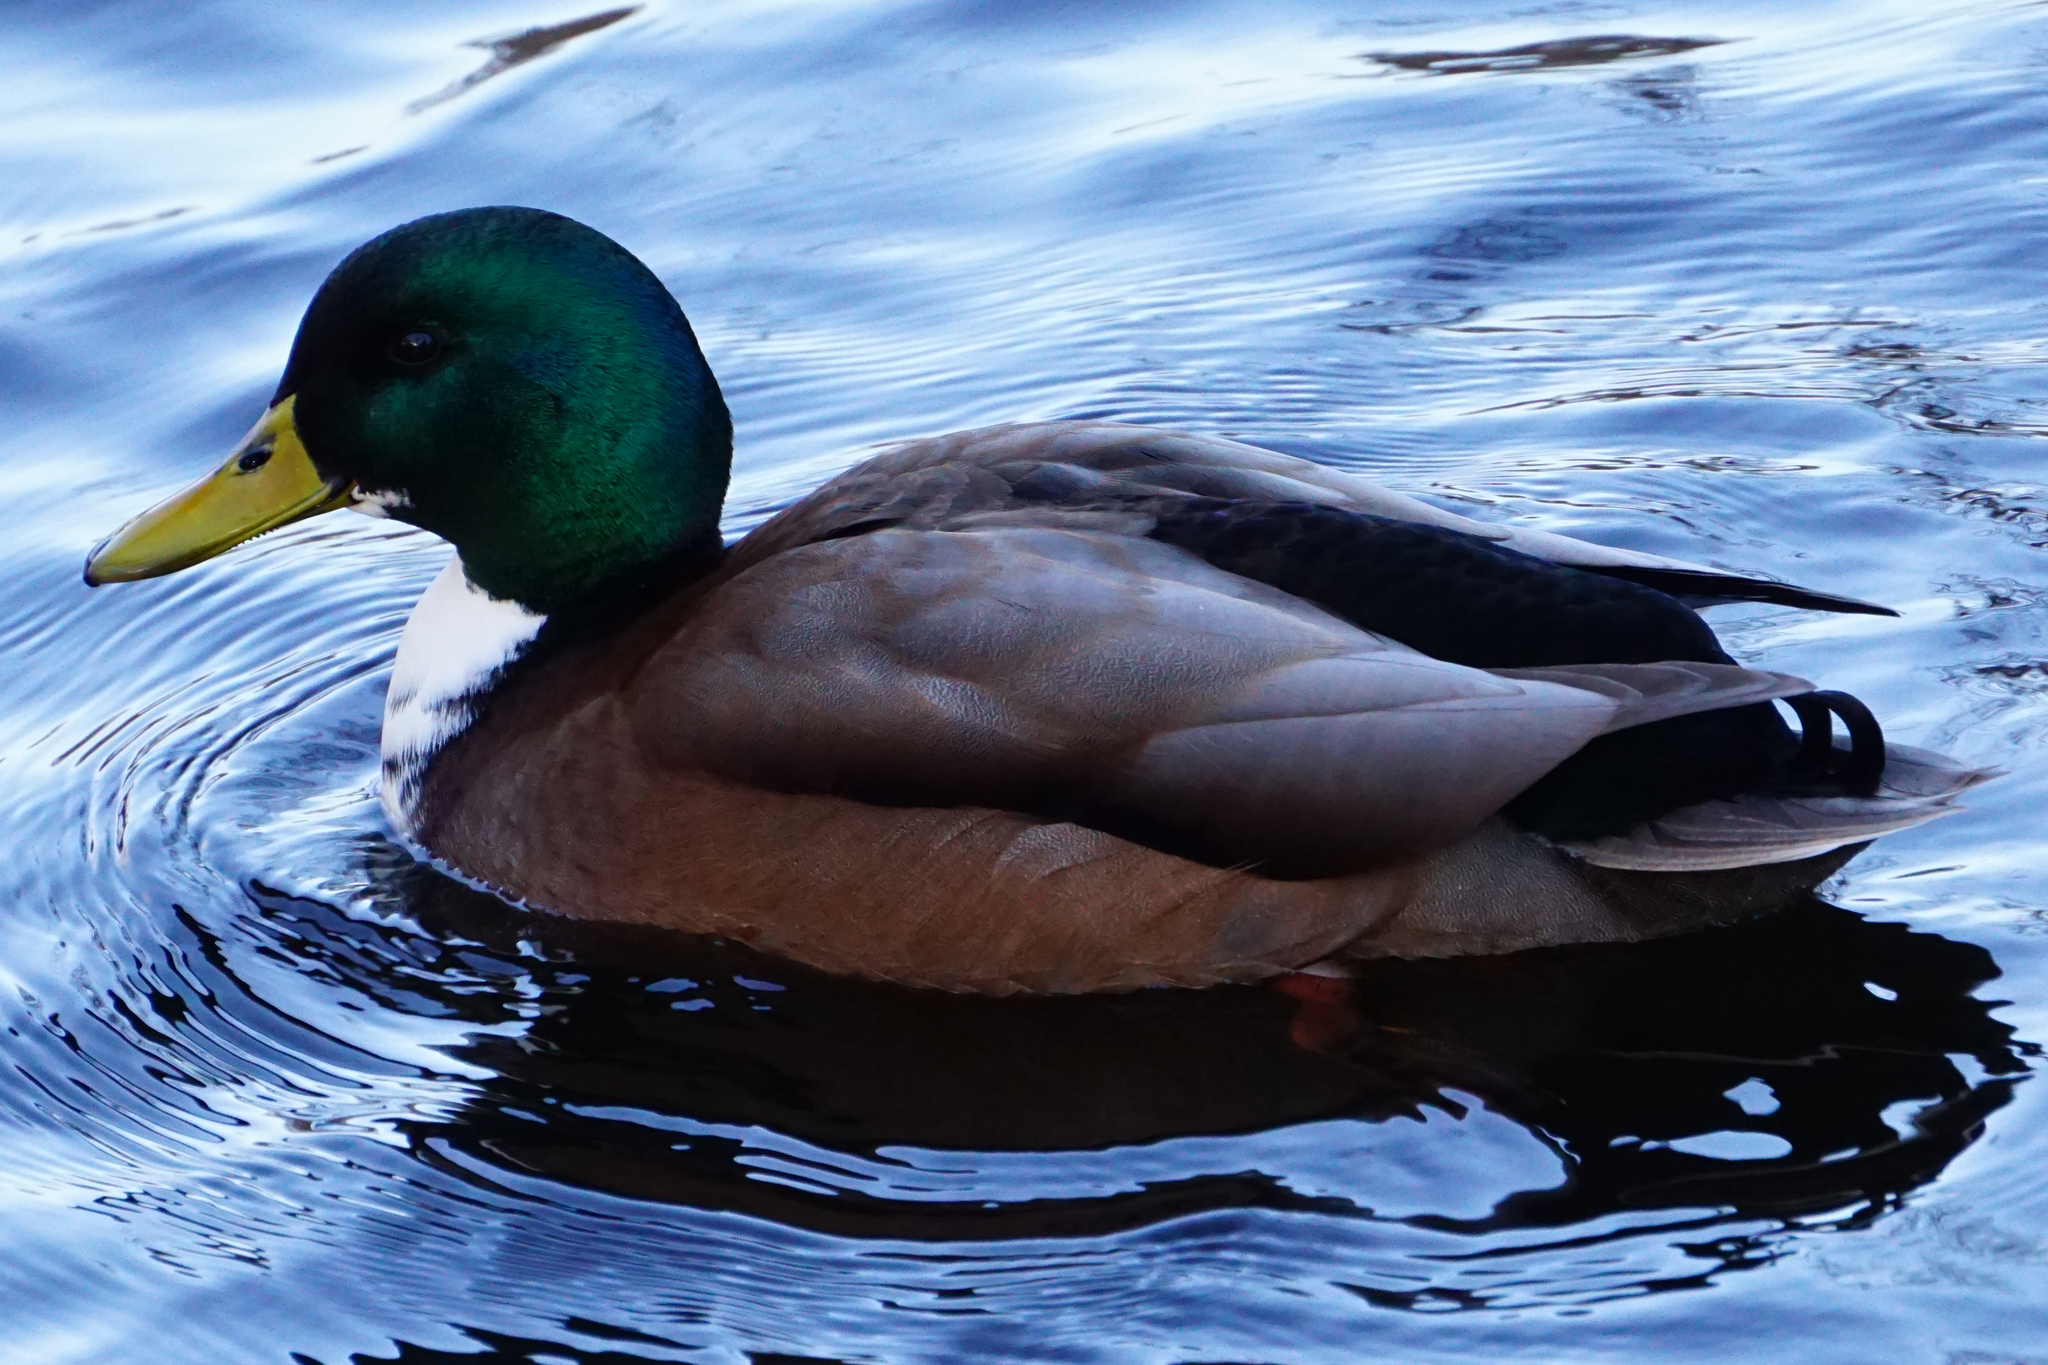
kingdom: Animalia
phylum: Chordata
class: Aves
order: Anseriformes
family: Anatidae
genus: Anas
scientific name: Anas platyrhynchos
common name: Mallard
